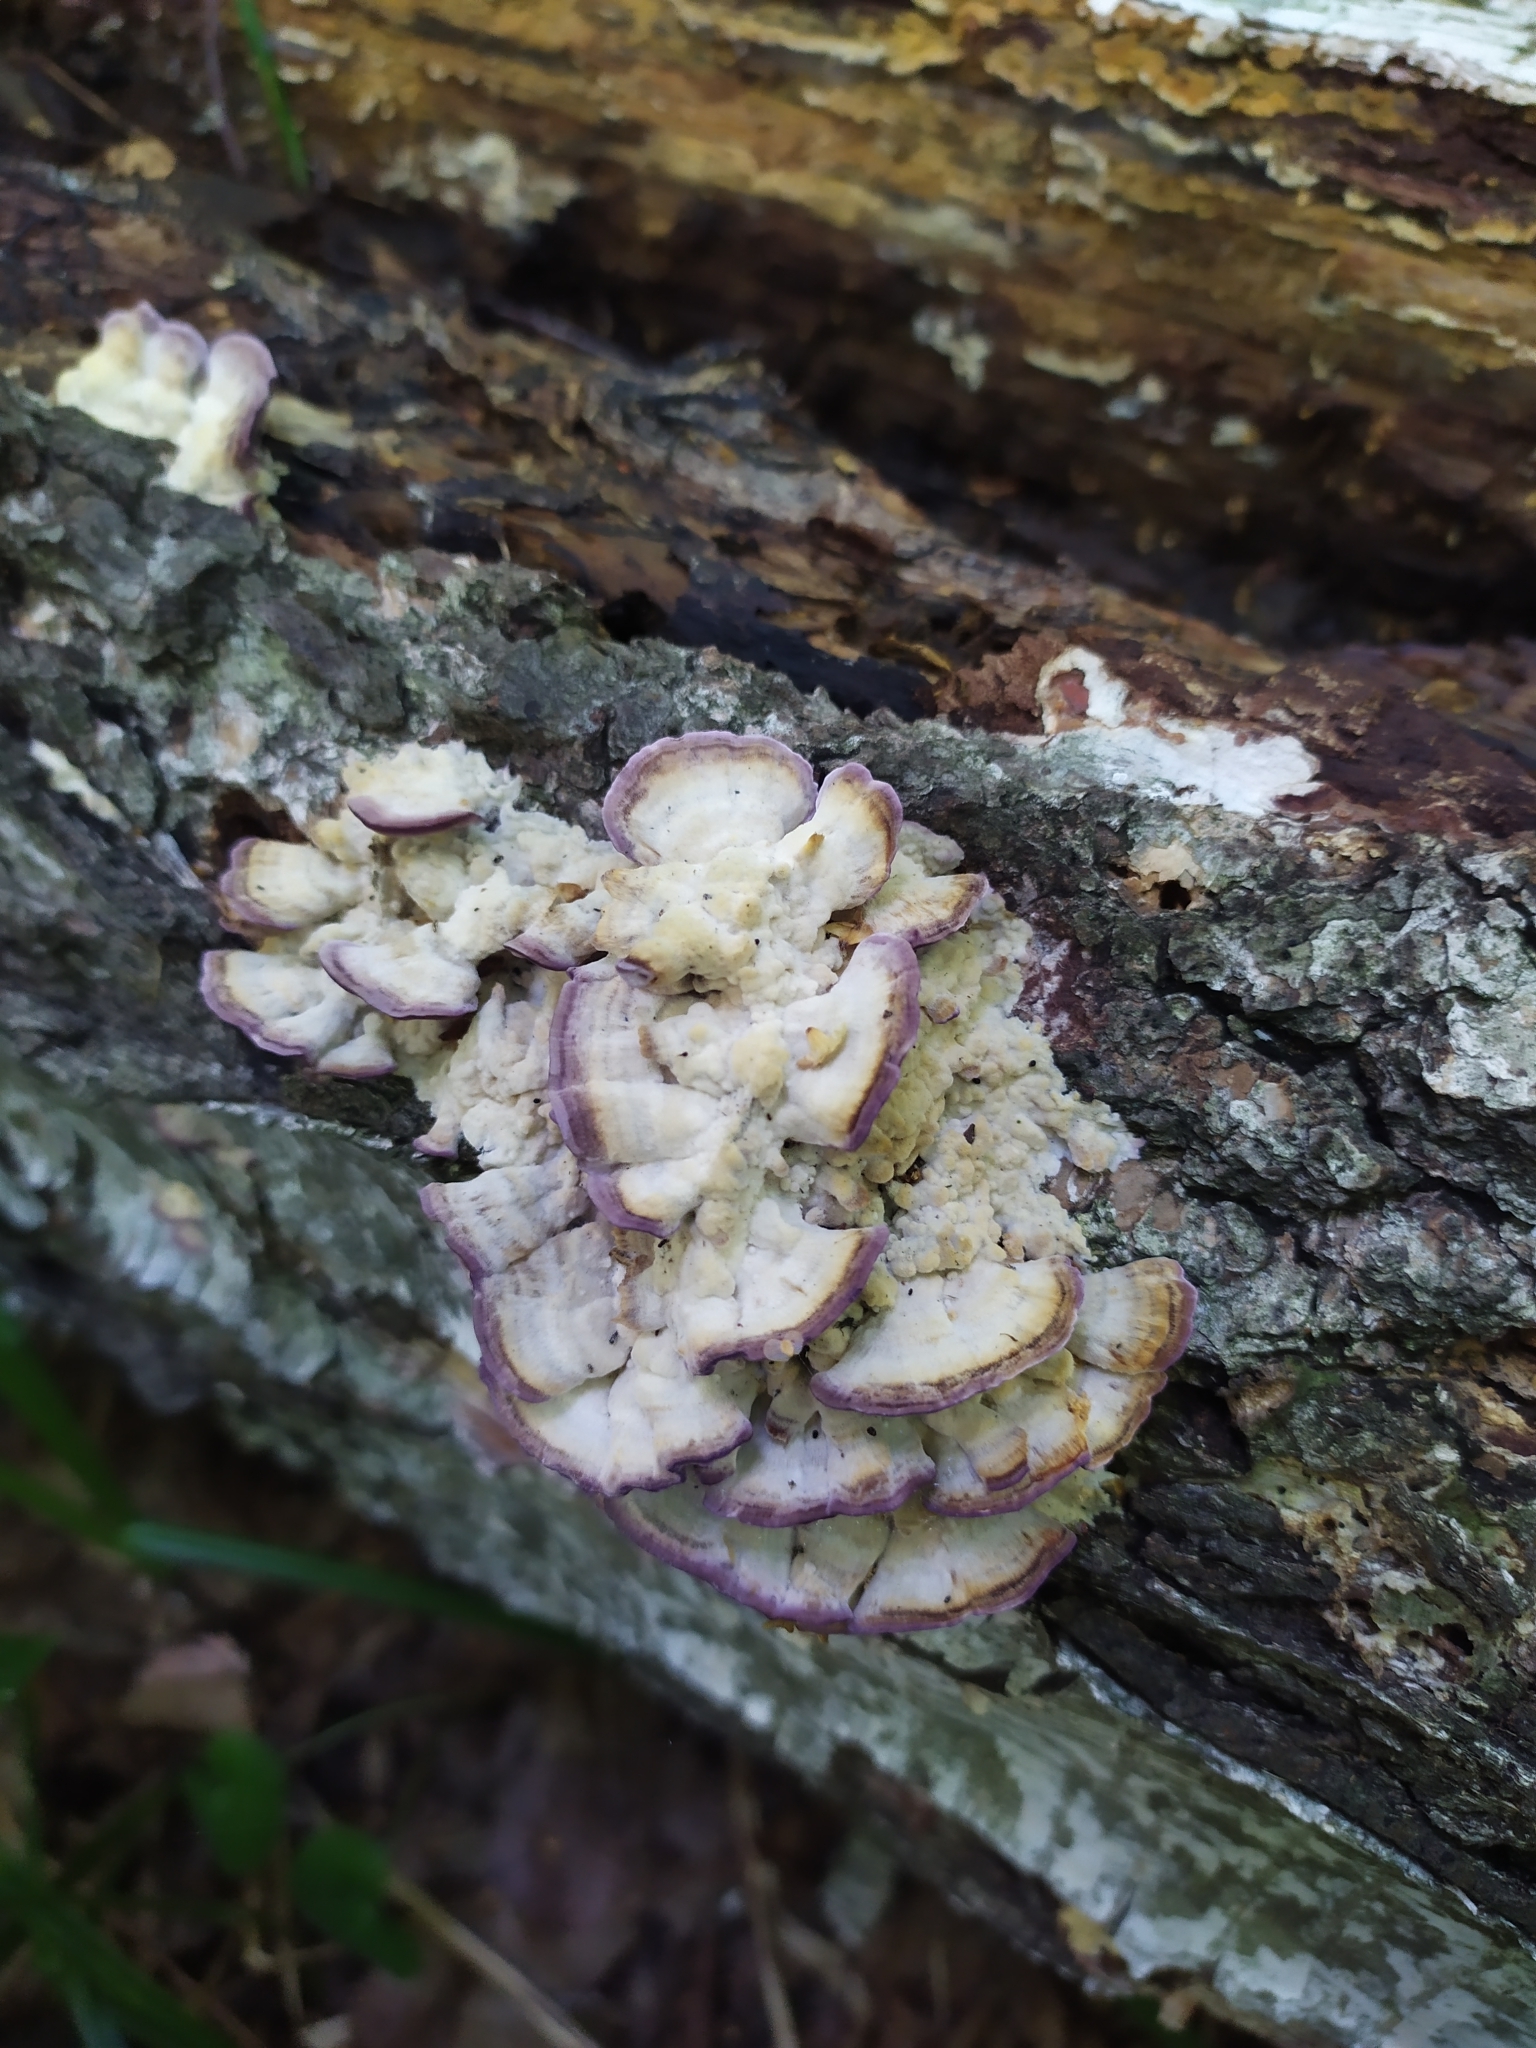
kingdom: Fungi
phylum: Basidiomycota
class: Agaricomycetes
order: Hymenochaetales
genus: Trichaptum
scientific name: Trichaptum biforme
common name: Violet-toothed polypore
